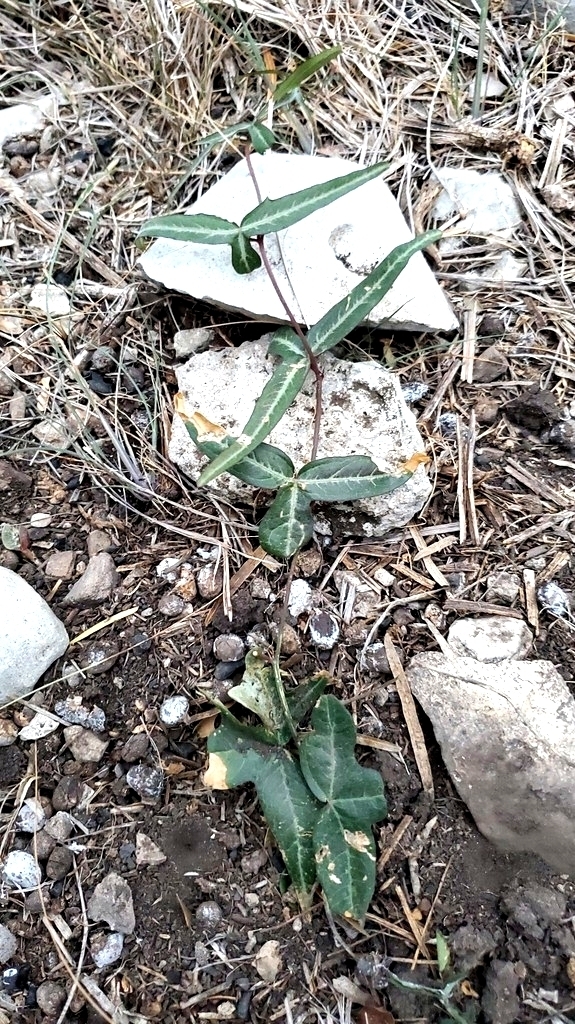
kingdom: Plantae
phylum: Tracheophyta
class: Magnoliopsida
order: Malpighiales
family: Passifloraceae
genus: Passiflora
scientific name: Passiflora tenuiloba
